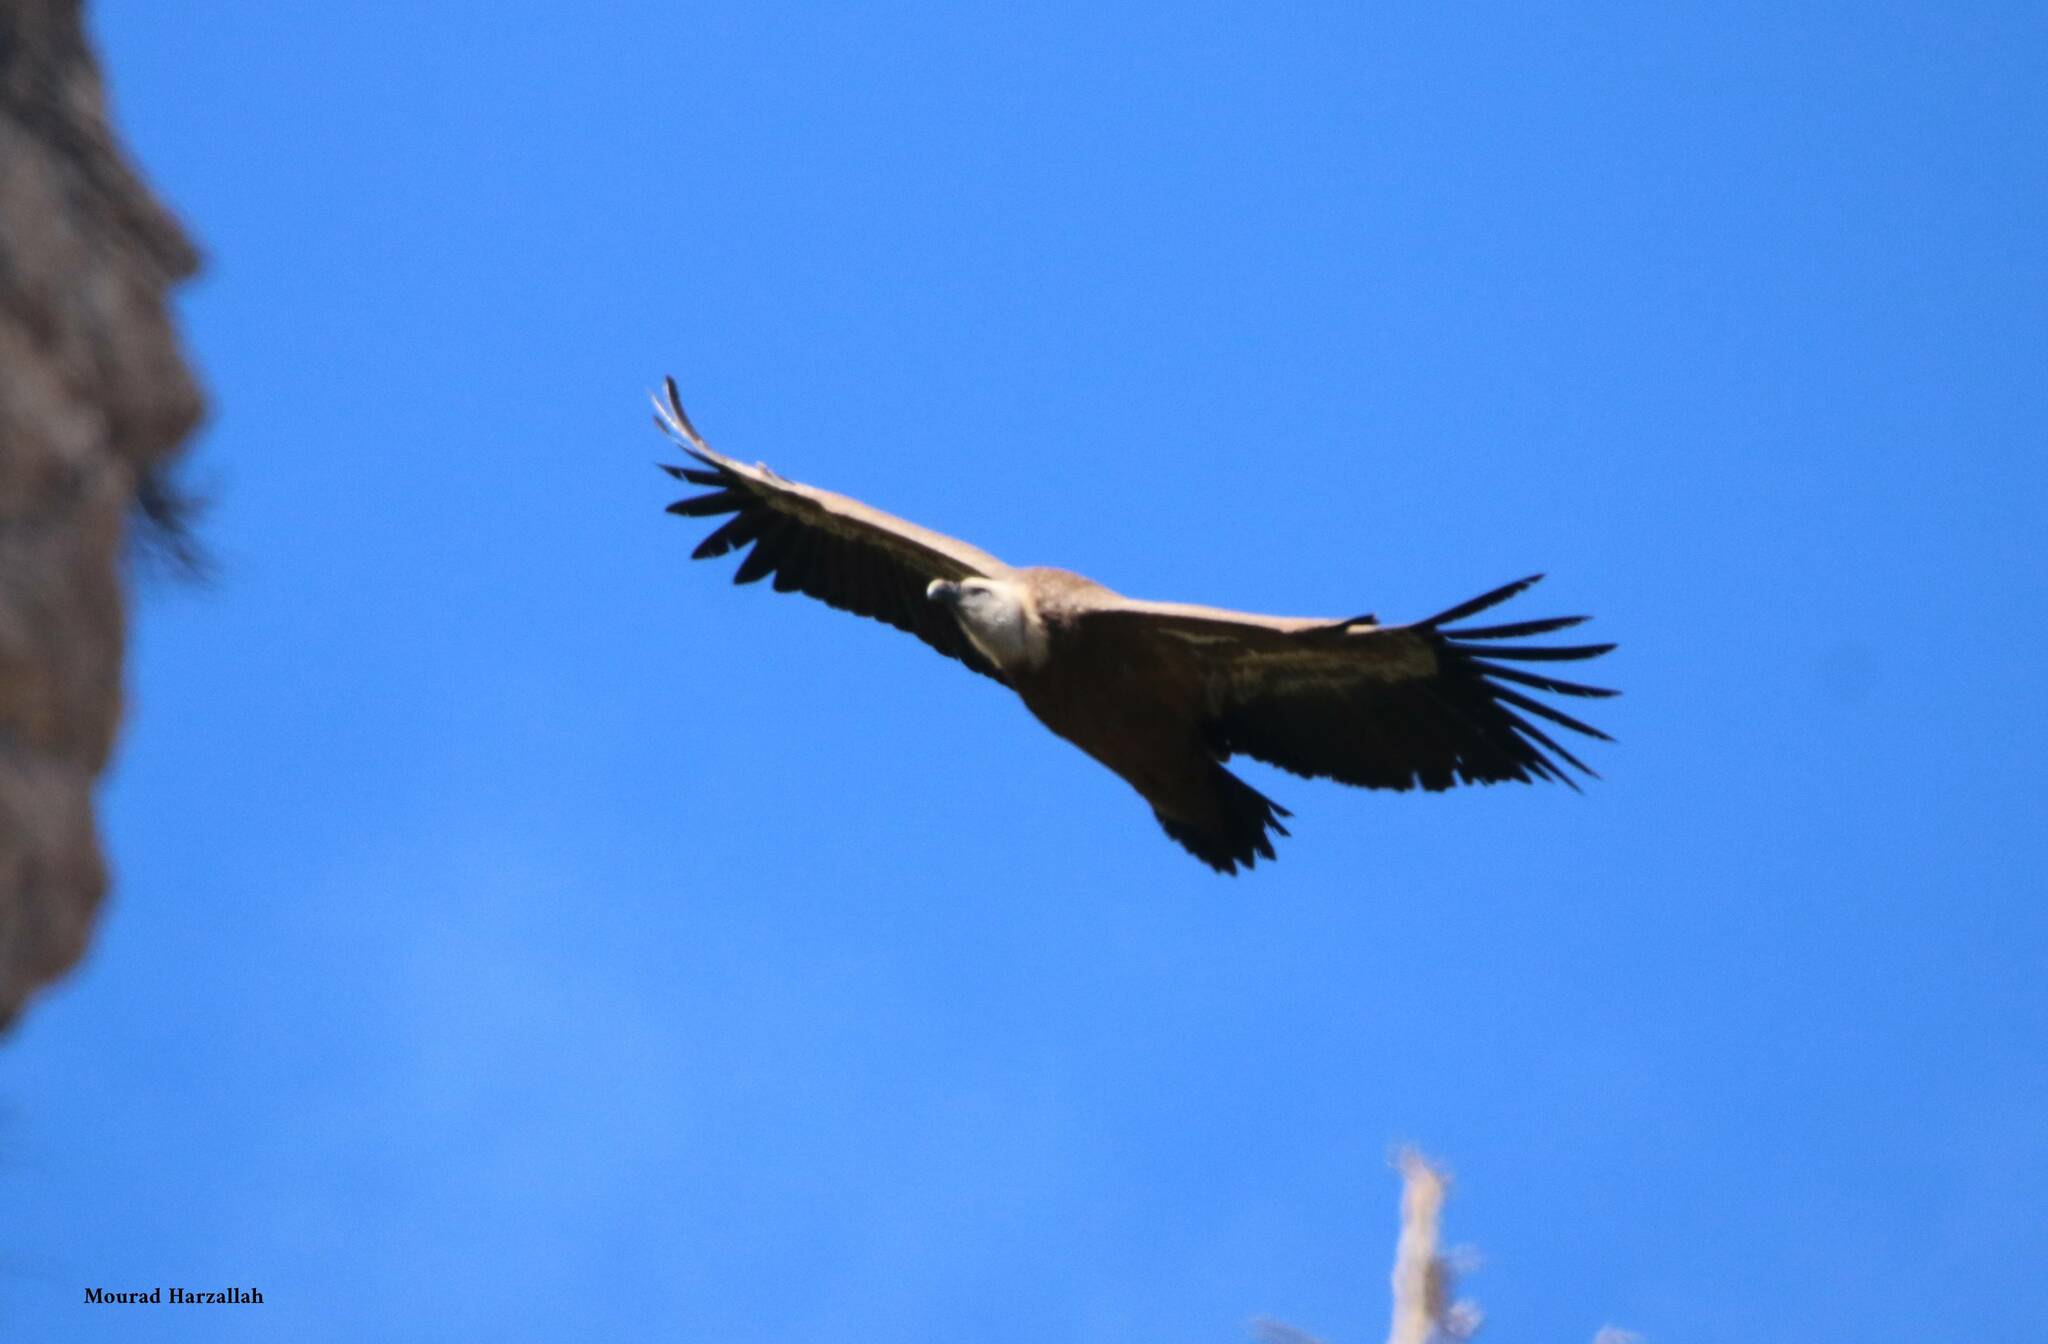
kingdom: Animalia
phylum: Chordata
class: Aves
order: Accipitriformes
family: Accipitridae
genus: Gyps
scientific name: Gyps fulvus
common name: Griffon vulture
